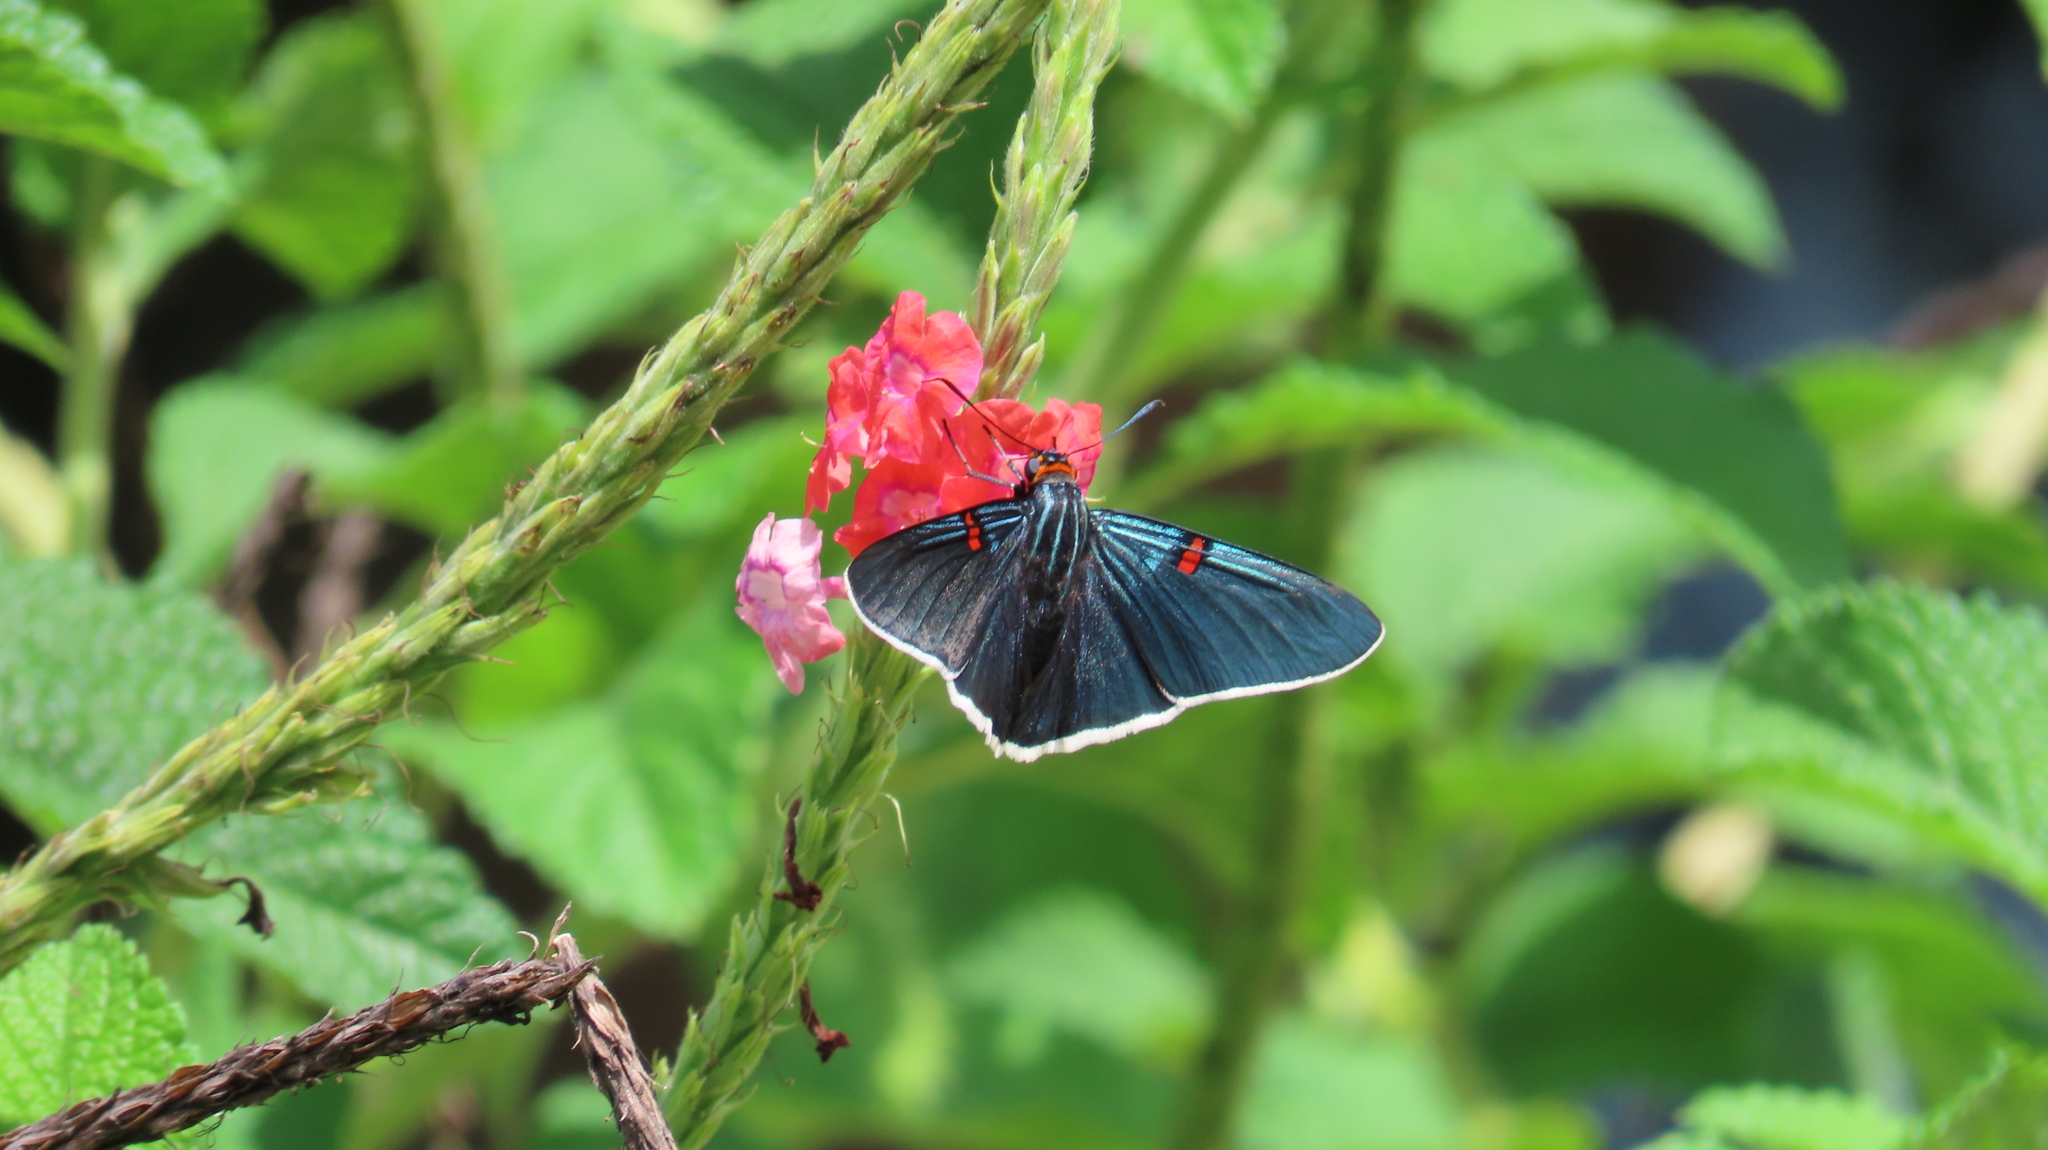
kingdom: Animalia
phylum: Arthropoda
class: Insecta
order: Lepidoptera
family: Hesperiidae
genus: Phocides
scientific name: Phocides lilea
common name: Guava skipper
